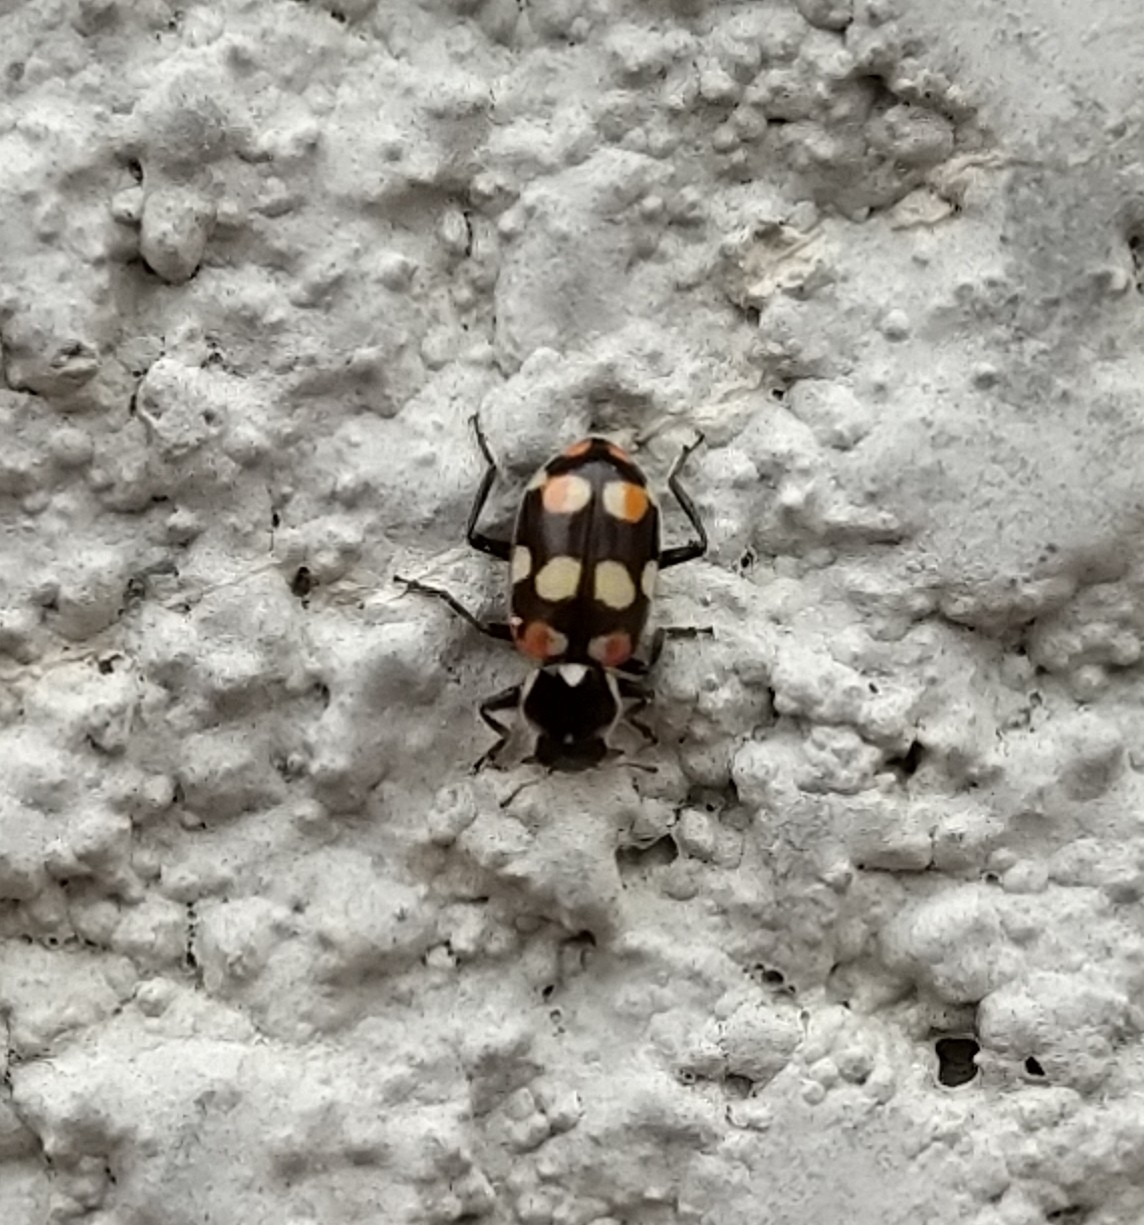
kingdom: Animalia
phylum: Arthropoda
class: Insecta
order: Coleoptera
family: Coccinellidae
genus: Eriopis
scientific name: Eriopis connexa
